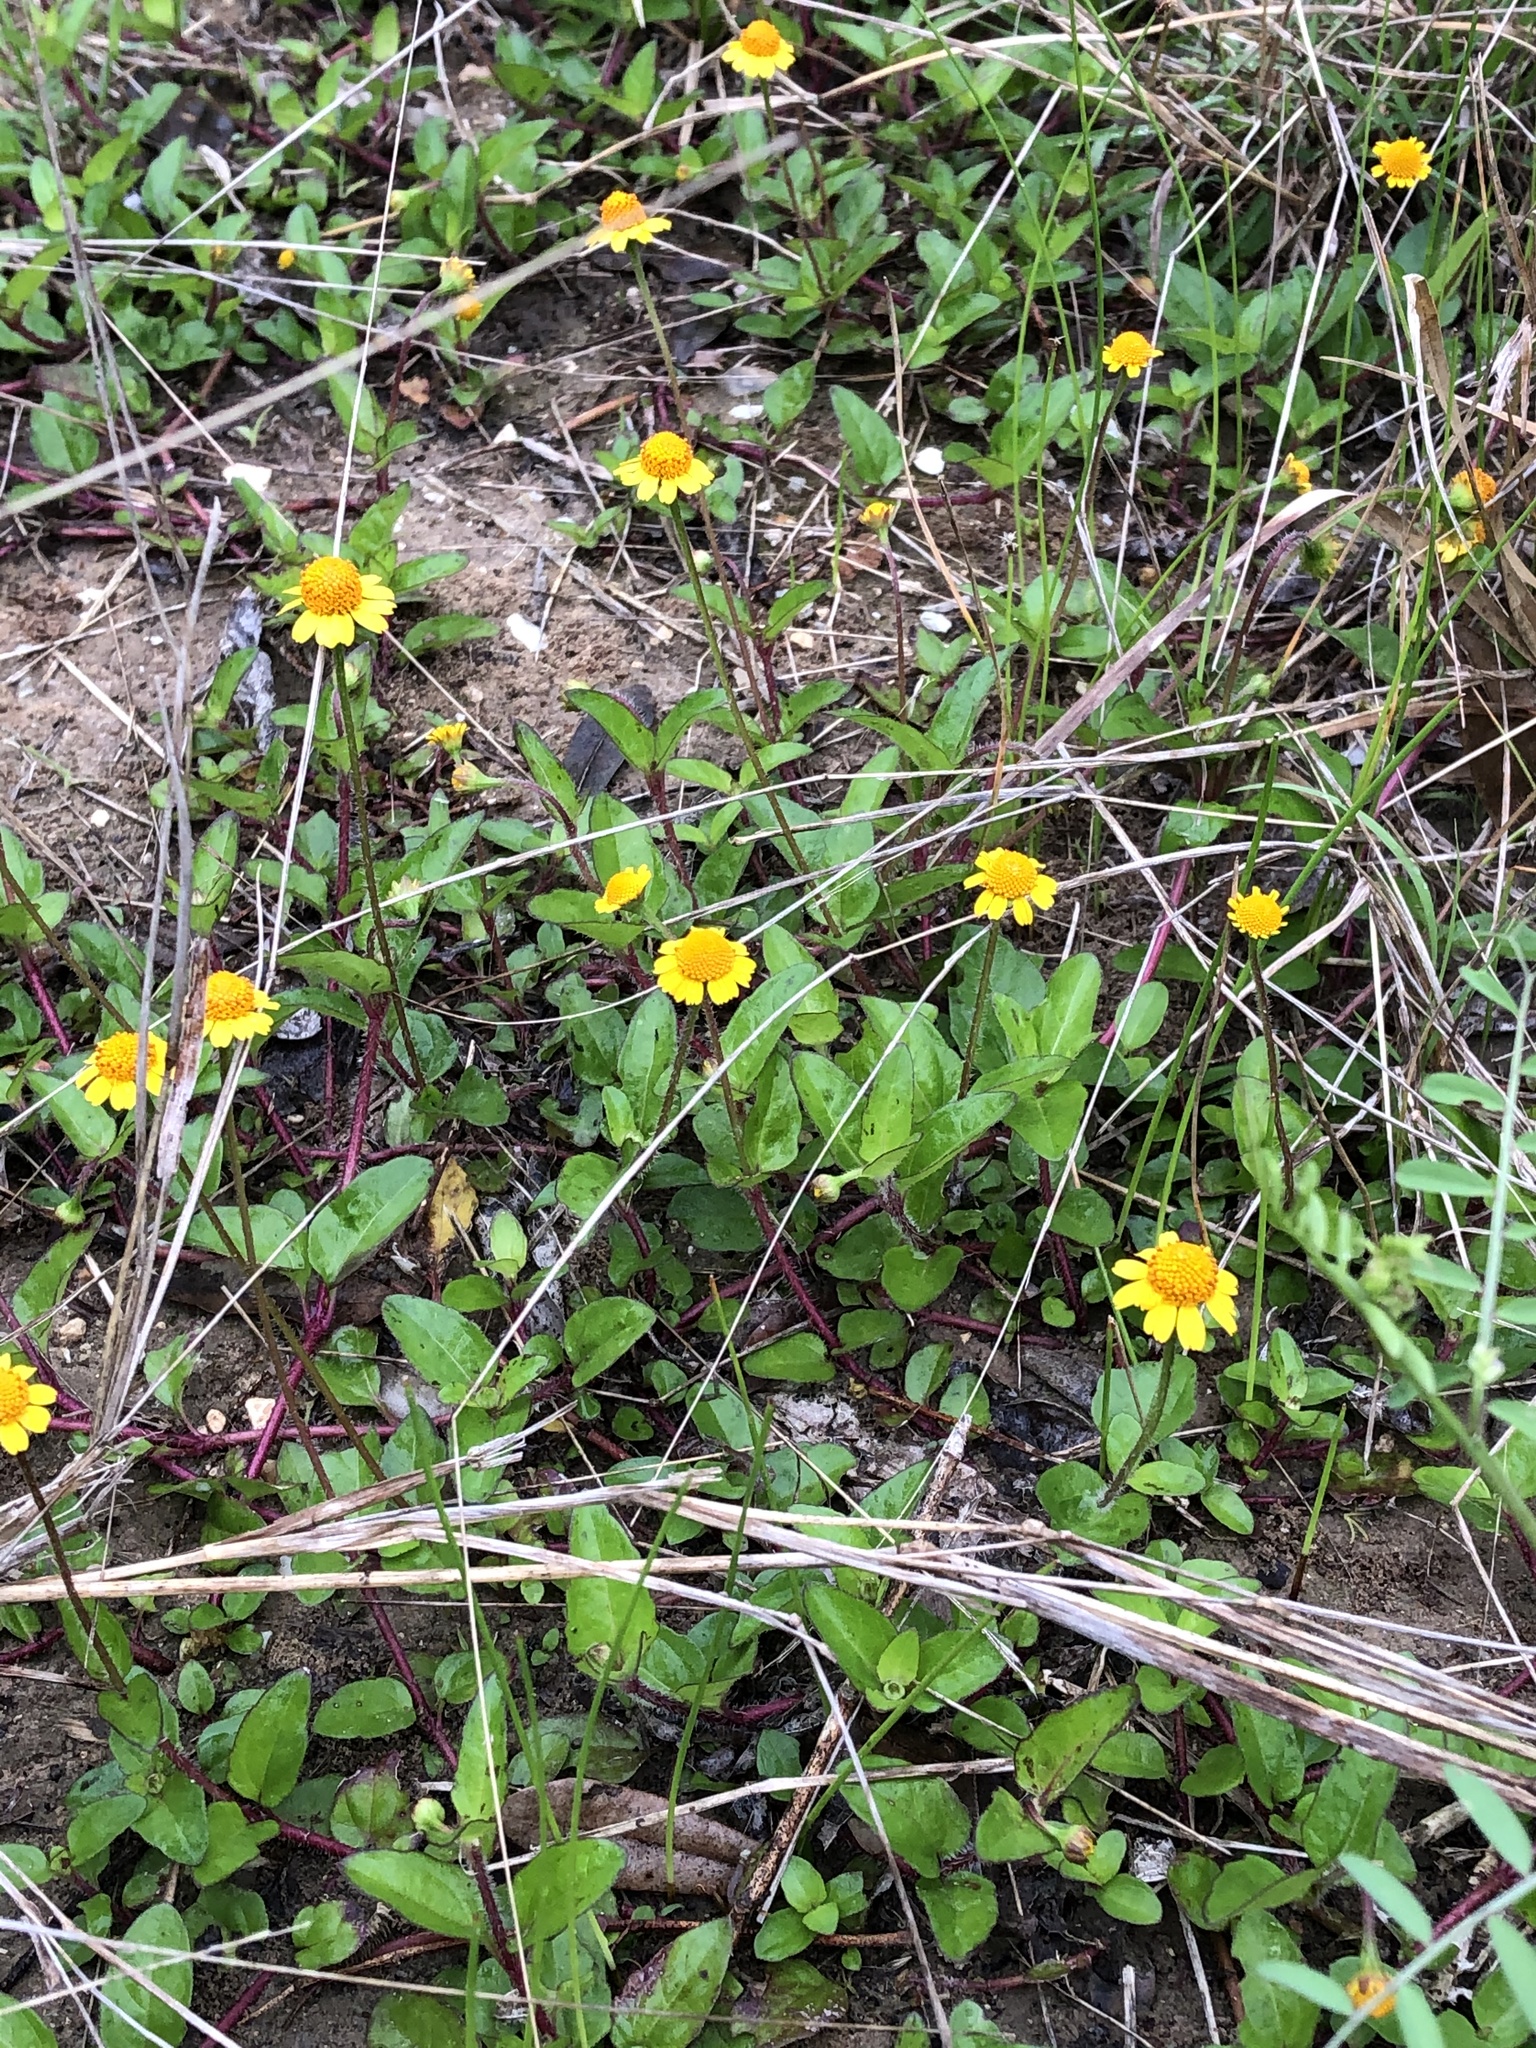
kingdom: Plantae
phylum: Tracheophyta
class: Magnoliopsida
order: Asterales
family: Asteraceae
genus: Acmella
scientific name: Acmella repens
